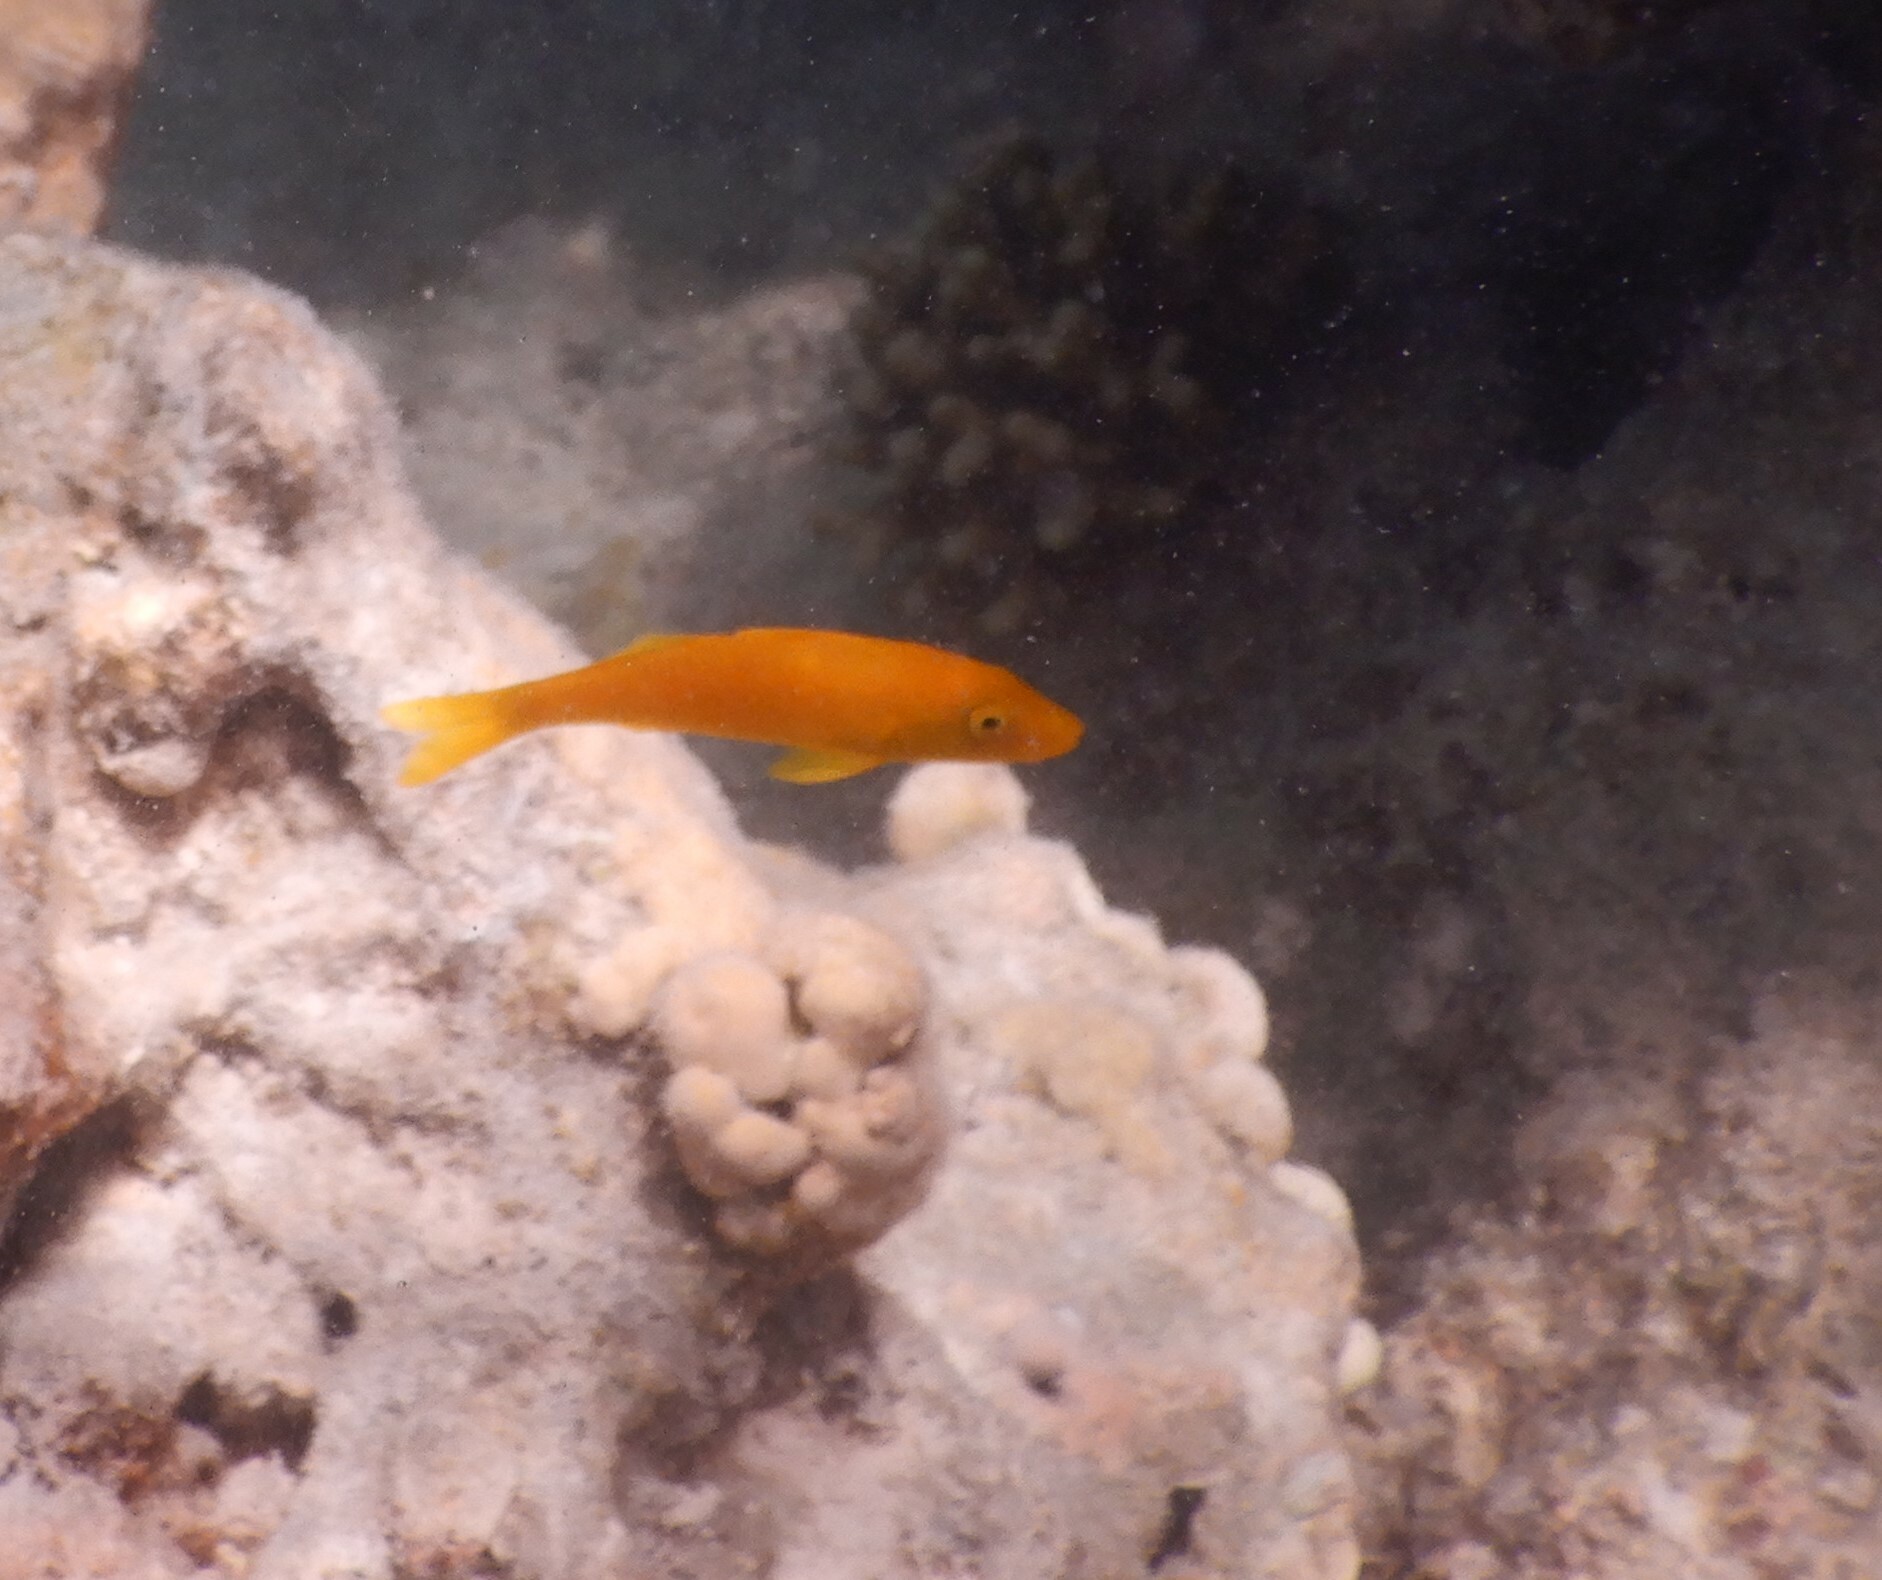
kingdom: Animalia
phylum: Chordata
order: Perciformes
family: Mullidae
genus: Parupeneus
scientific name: Parupeneus cyclostomus
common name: Goldsaddle goatfish
